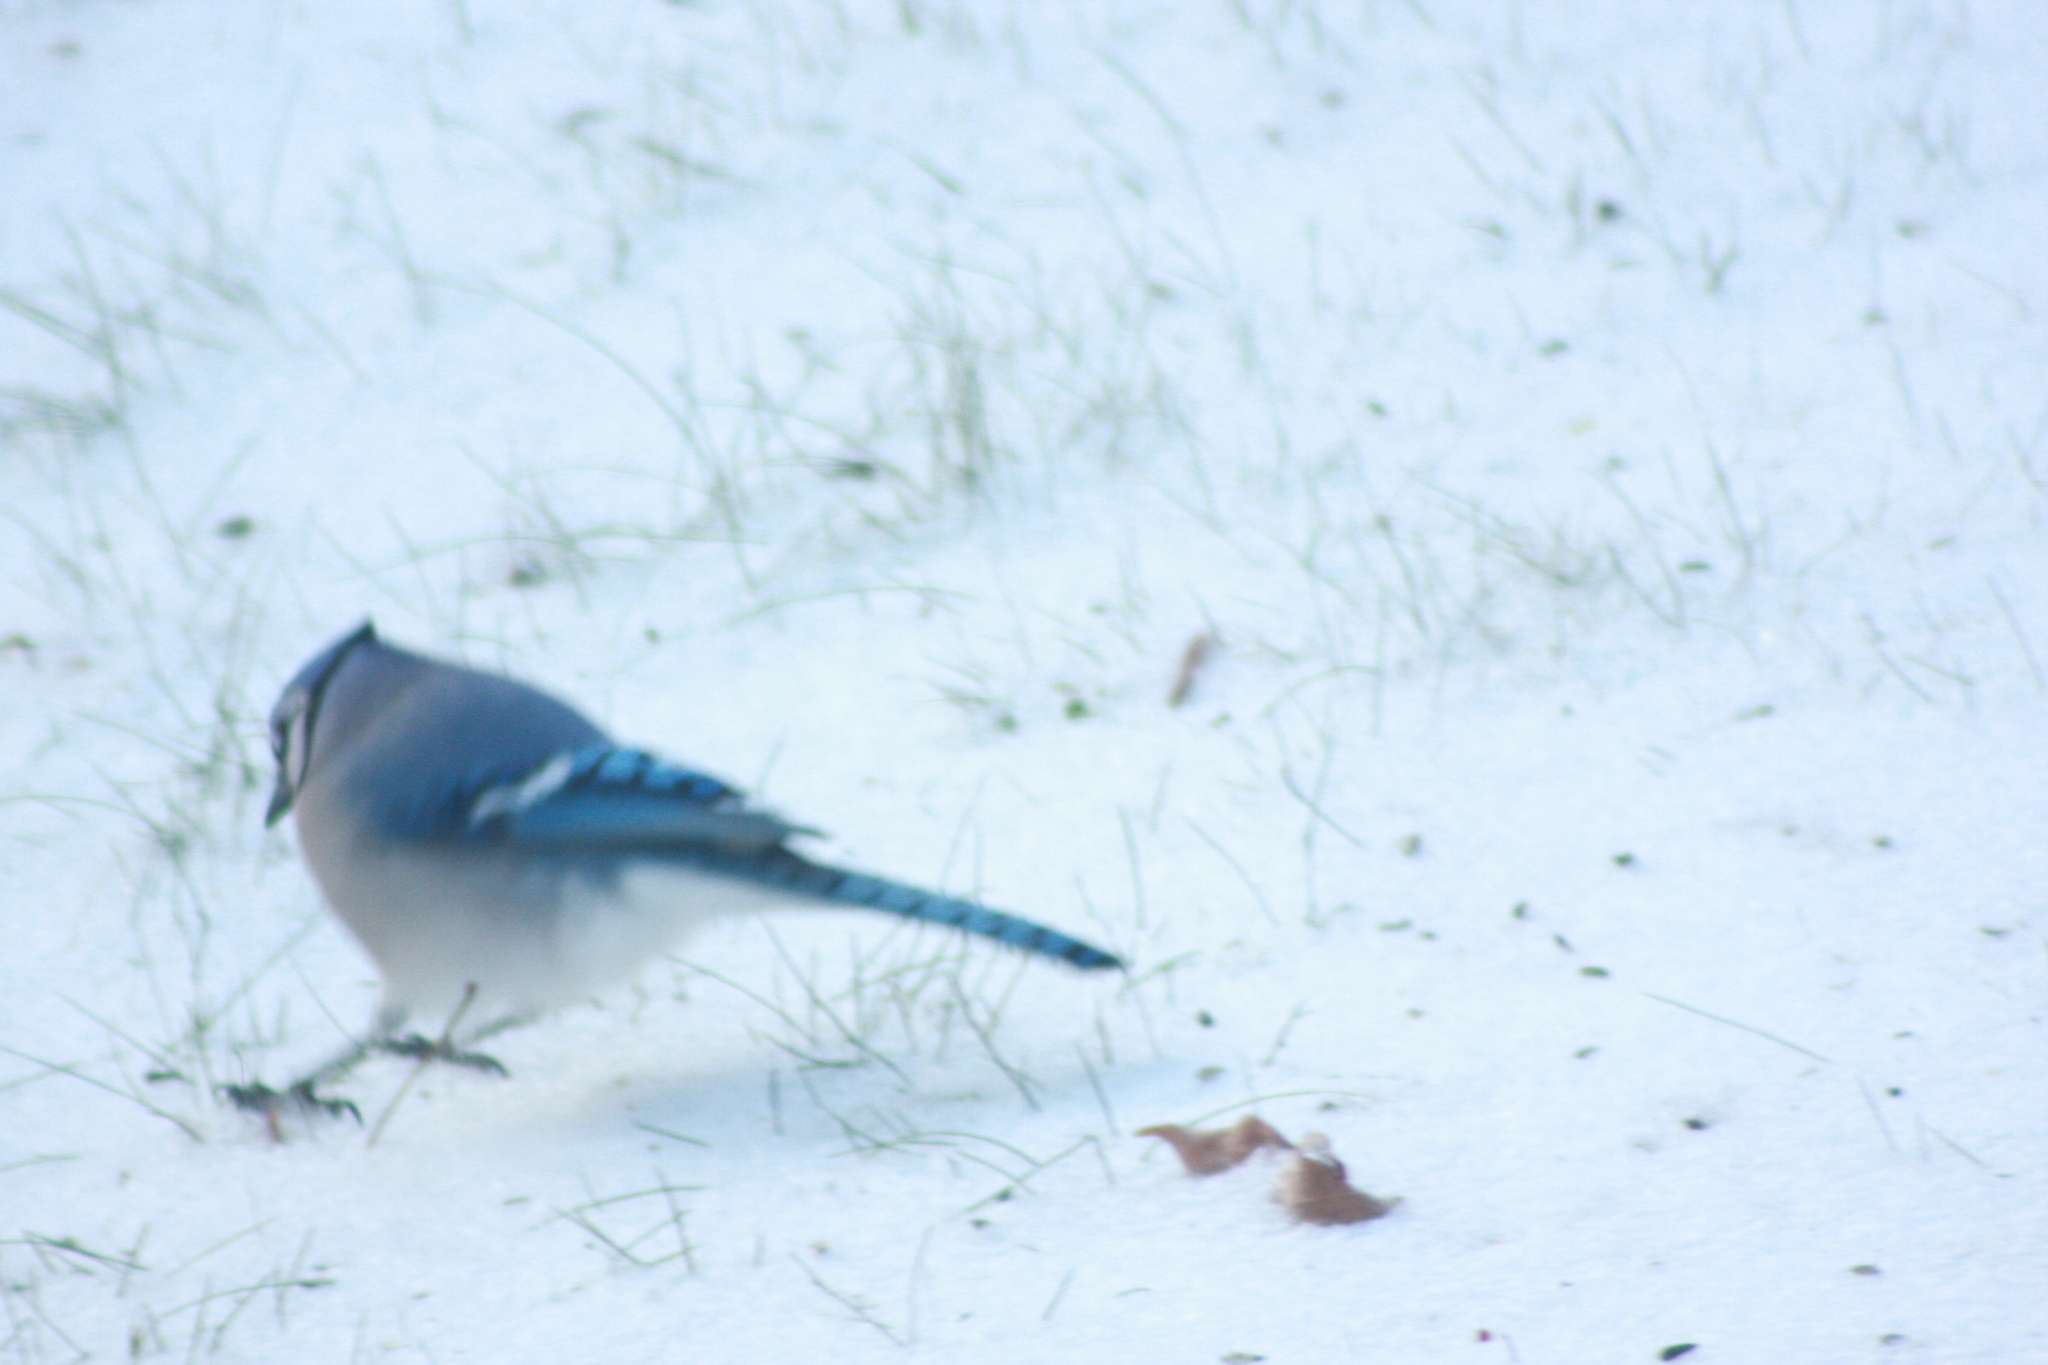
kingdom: Animalia
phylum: Chordata
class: Aves
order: Passeriformes
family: Corvidae
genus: Cyanocitta
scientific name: Cyanocitta cristata
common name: Blue jay
